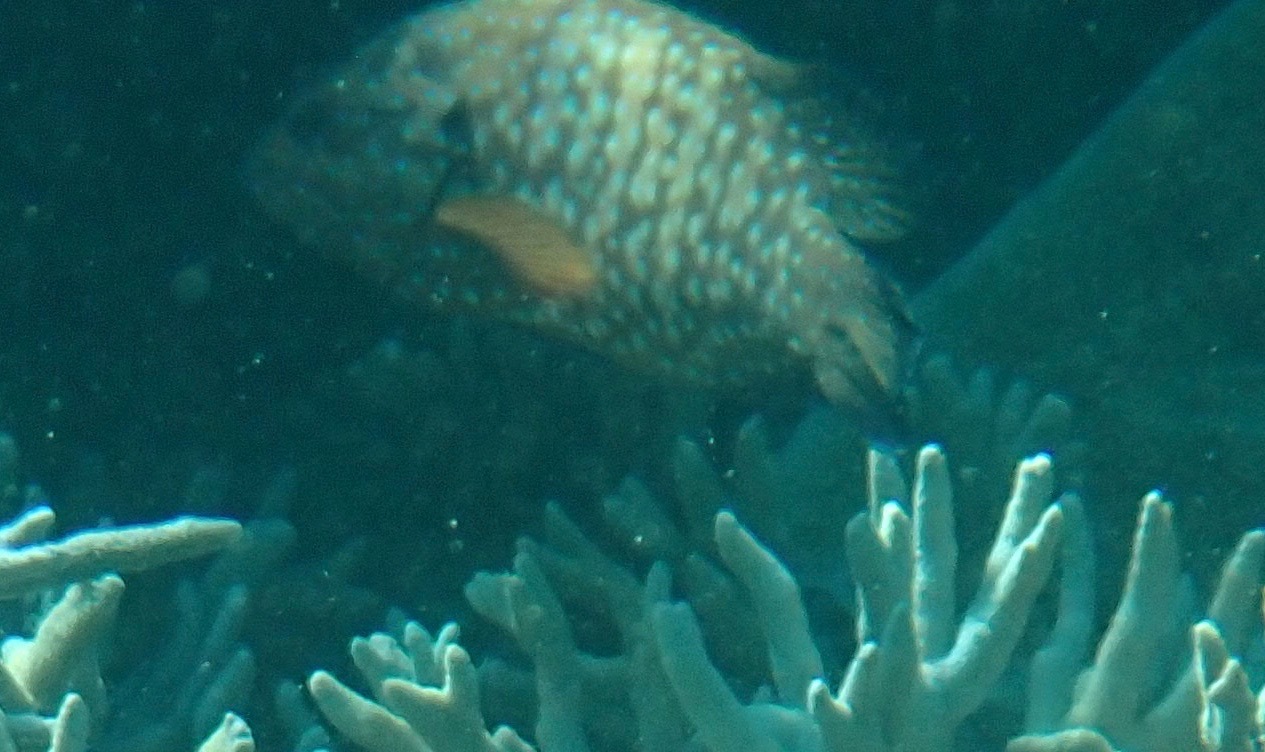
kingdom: Animalia
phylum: Chordata
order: Perciformes
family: Serranidae
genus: Cephalopholis
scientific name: Cephalopholis cyanostigma
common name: Bluespotted hind
